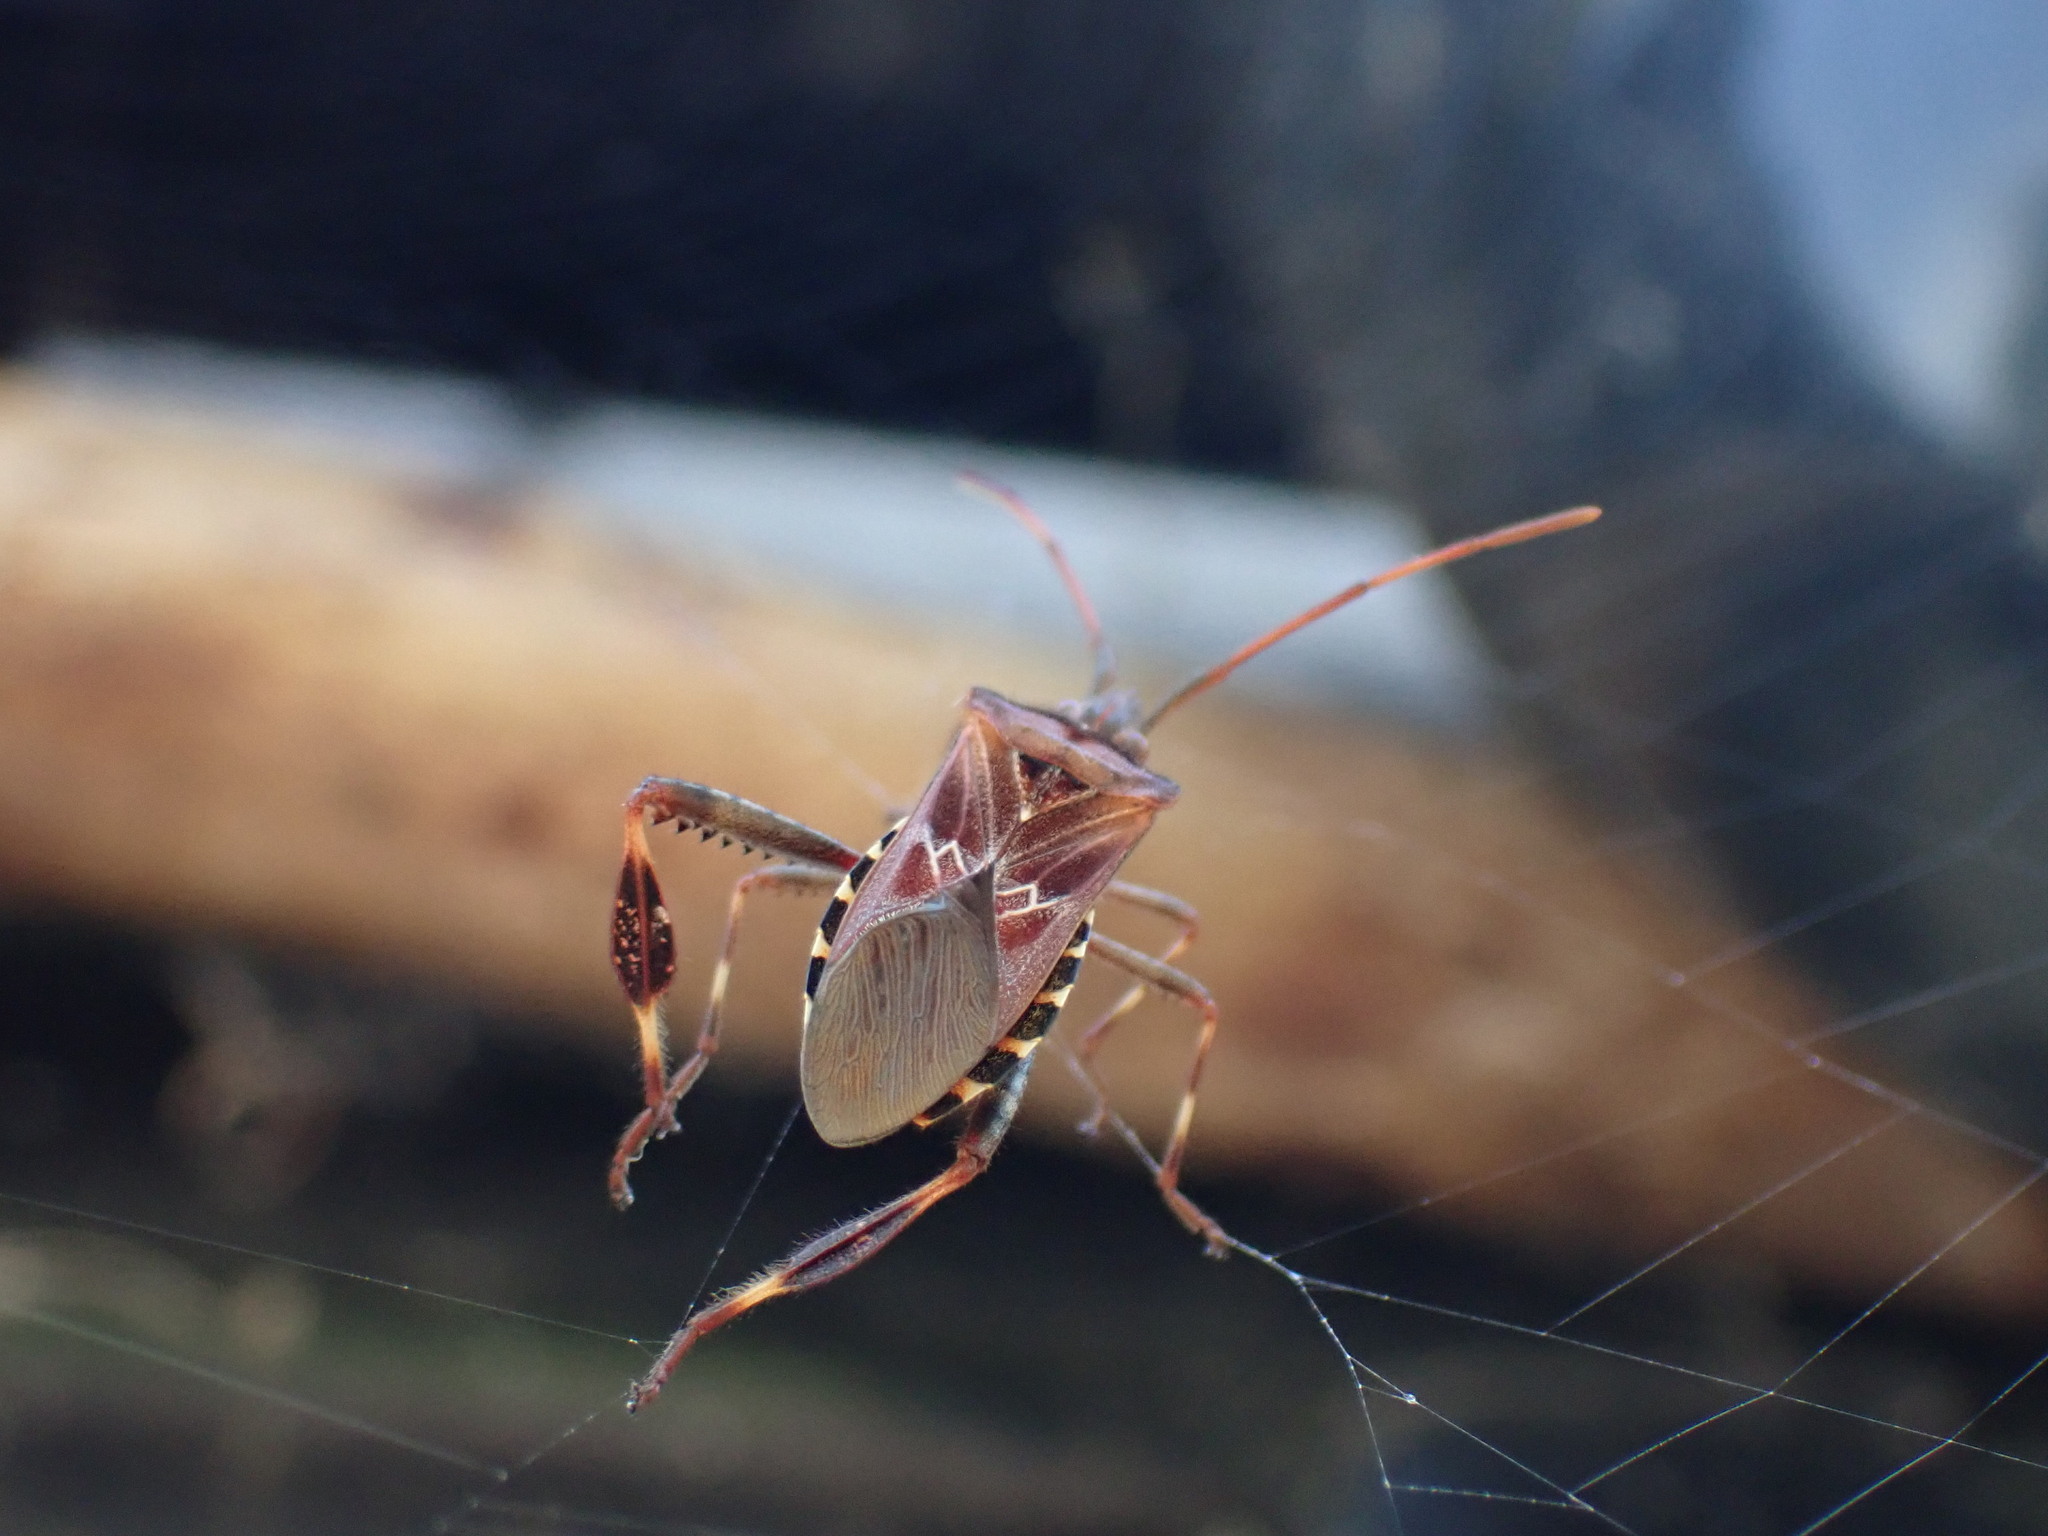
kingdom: Animalia
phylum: Arthropoda
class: Insecta
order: Hemiptera
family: Coreidae
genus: Leptoglossus
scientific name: Leptoglossus occidentalis
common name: Western conifer-seed bug
